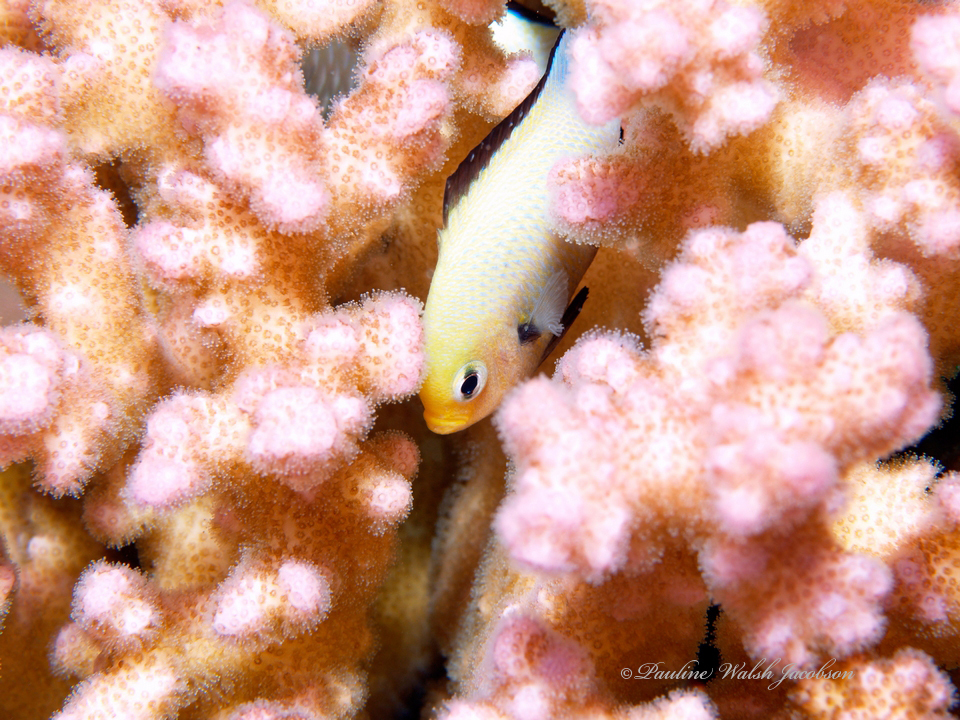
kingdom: Animalia
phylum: Chordata
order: Perciformes
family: Pomacentridae
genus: Dascyllus
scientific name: Dascyllus marginatus
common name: Red sea dascyllus
